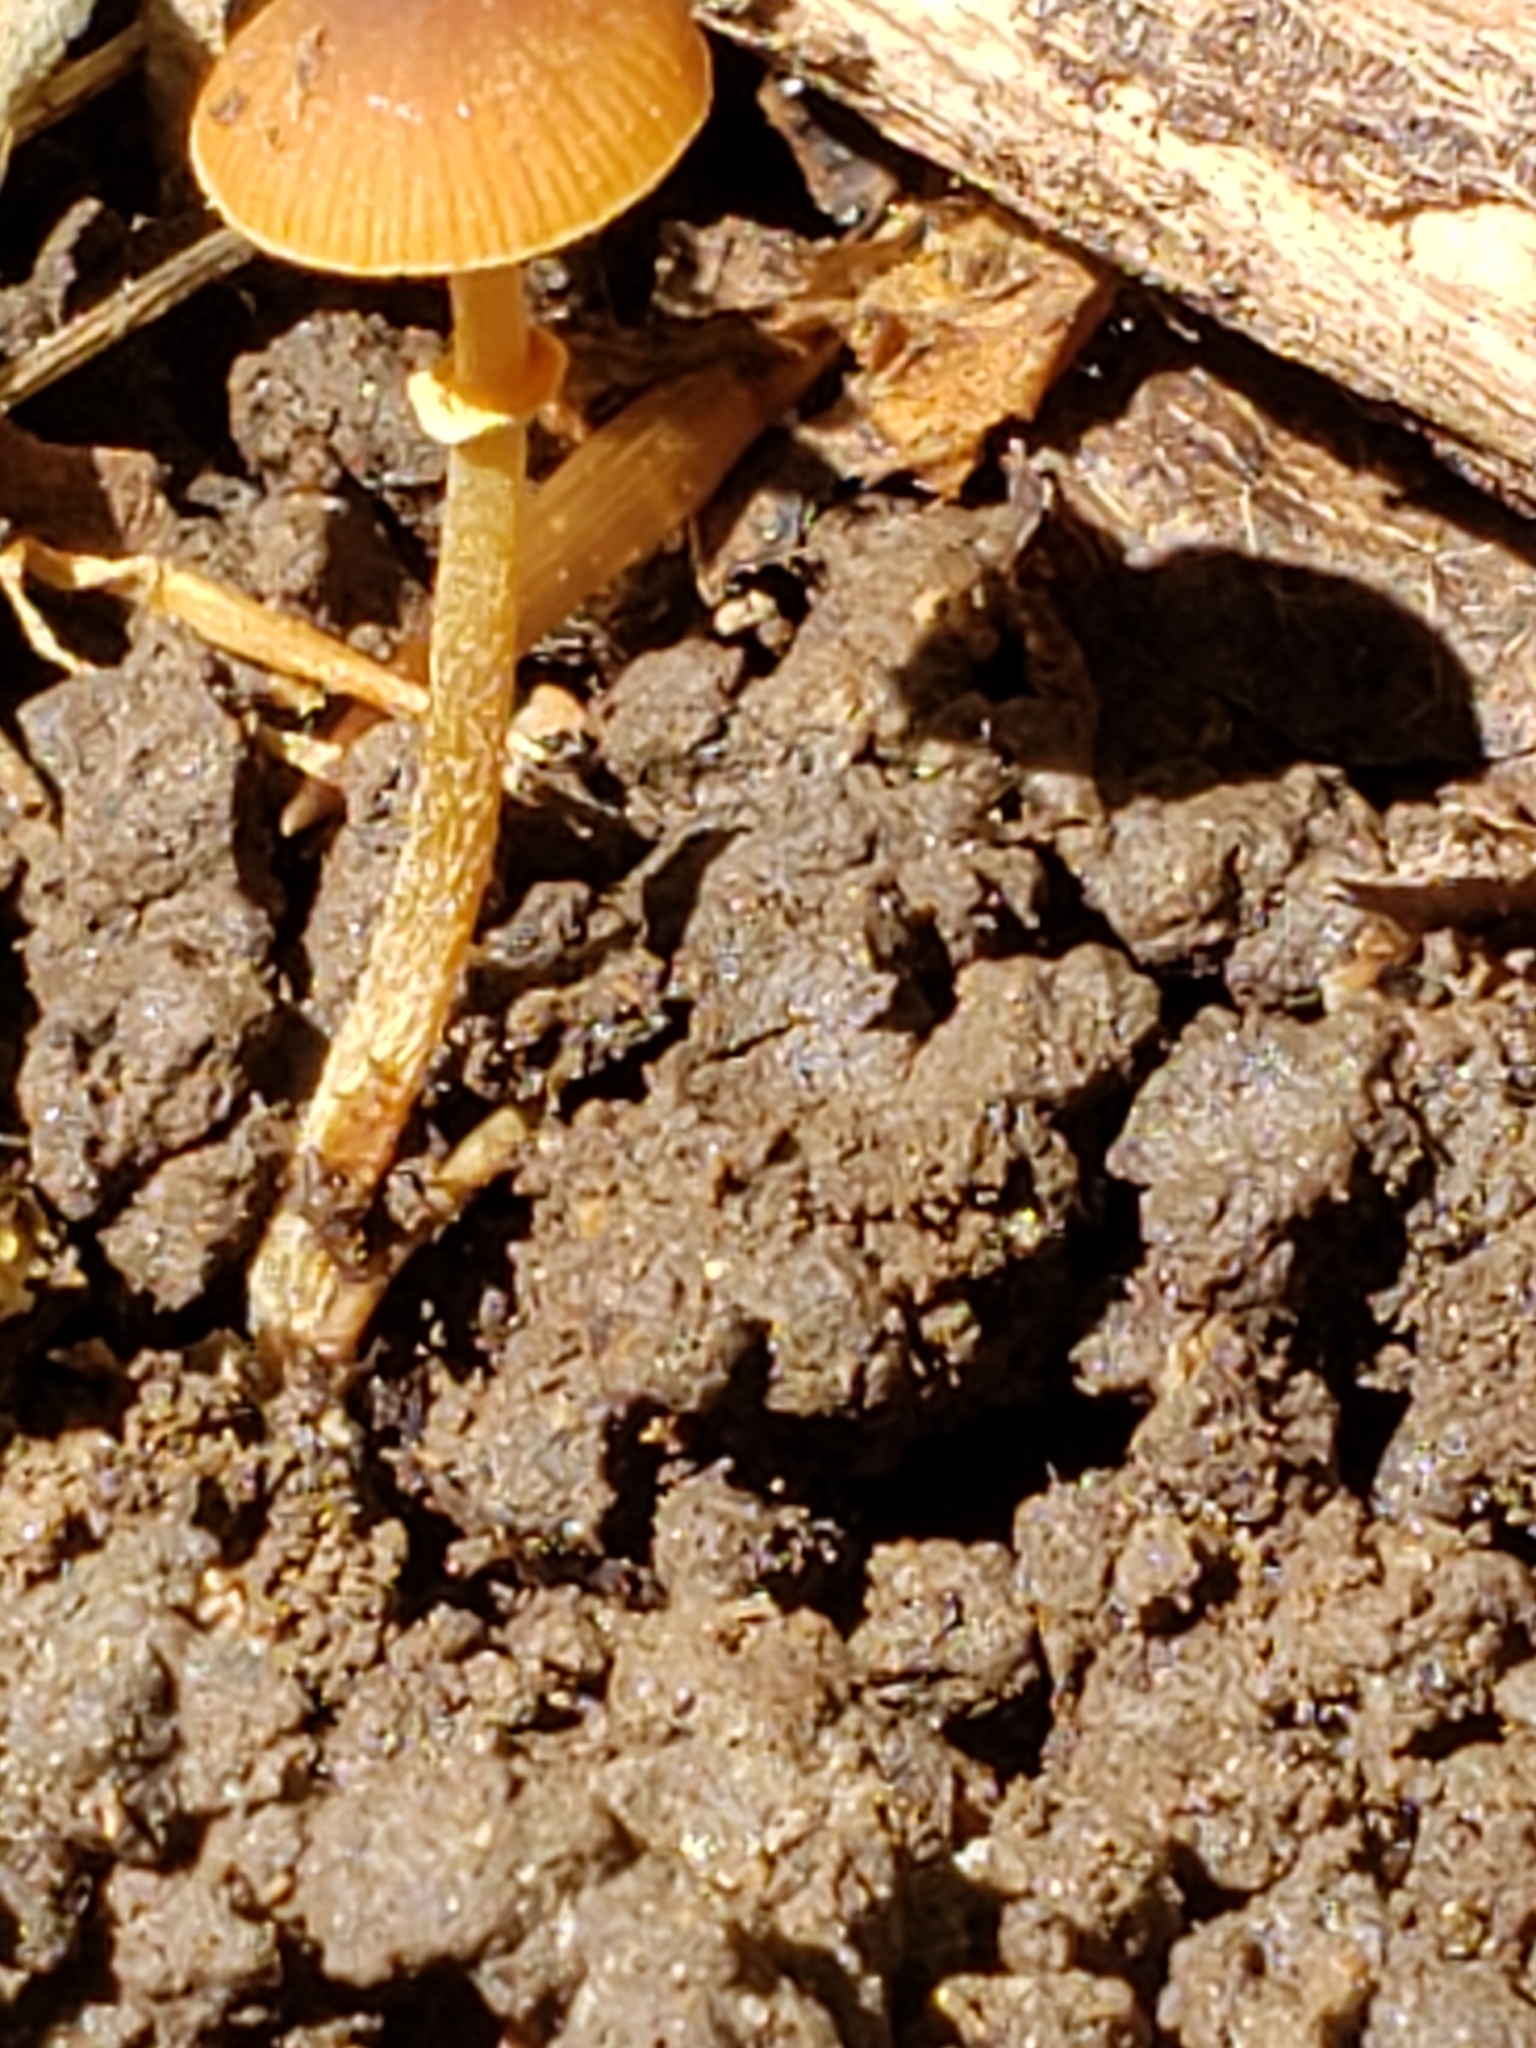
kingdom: Fungi
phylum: Basidiomycota
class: Agaricomycetes
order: Agaricales
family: Bolbitiaceae
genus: Conocybe
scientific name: Conocybe rugosa
